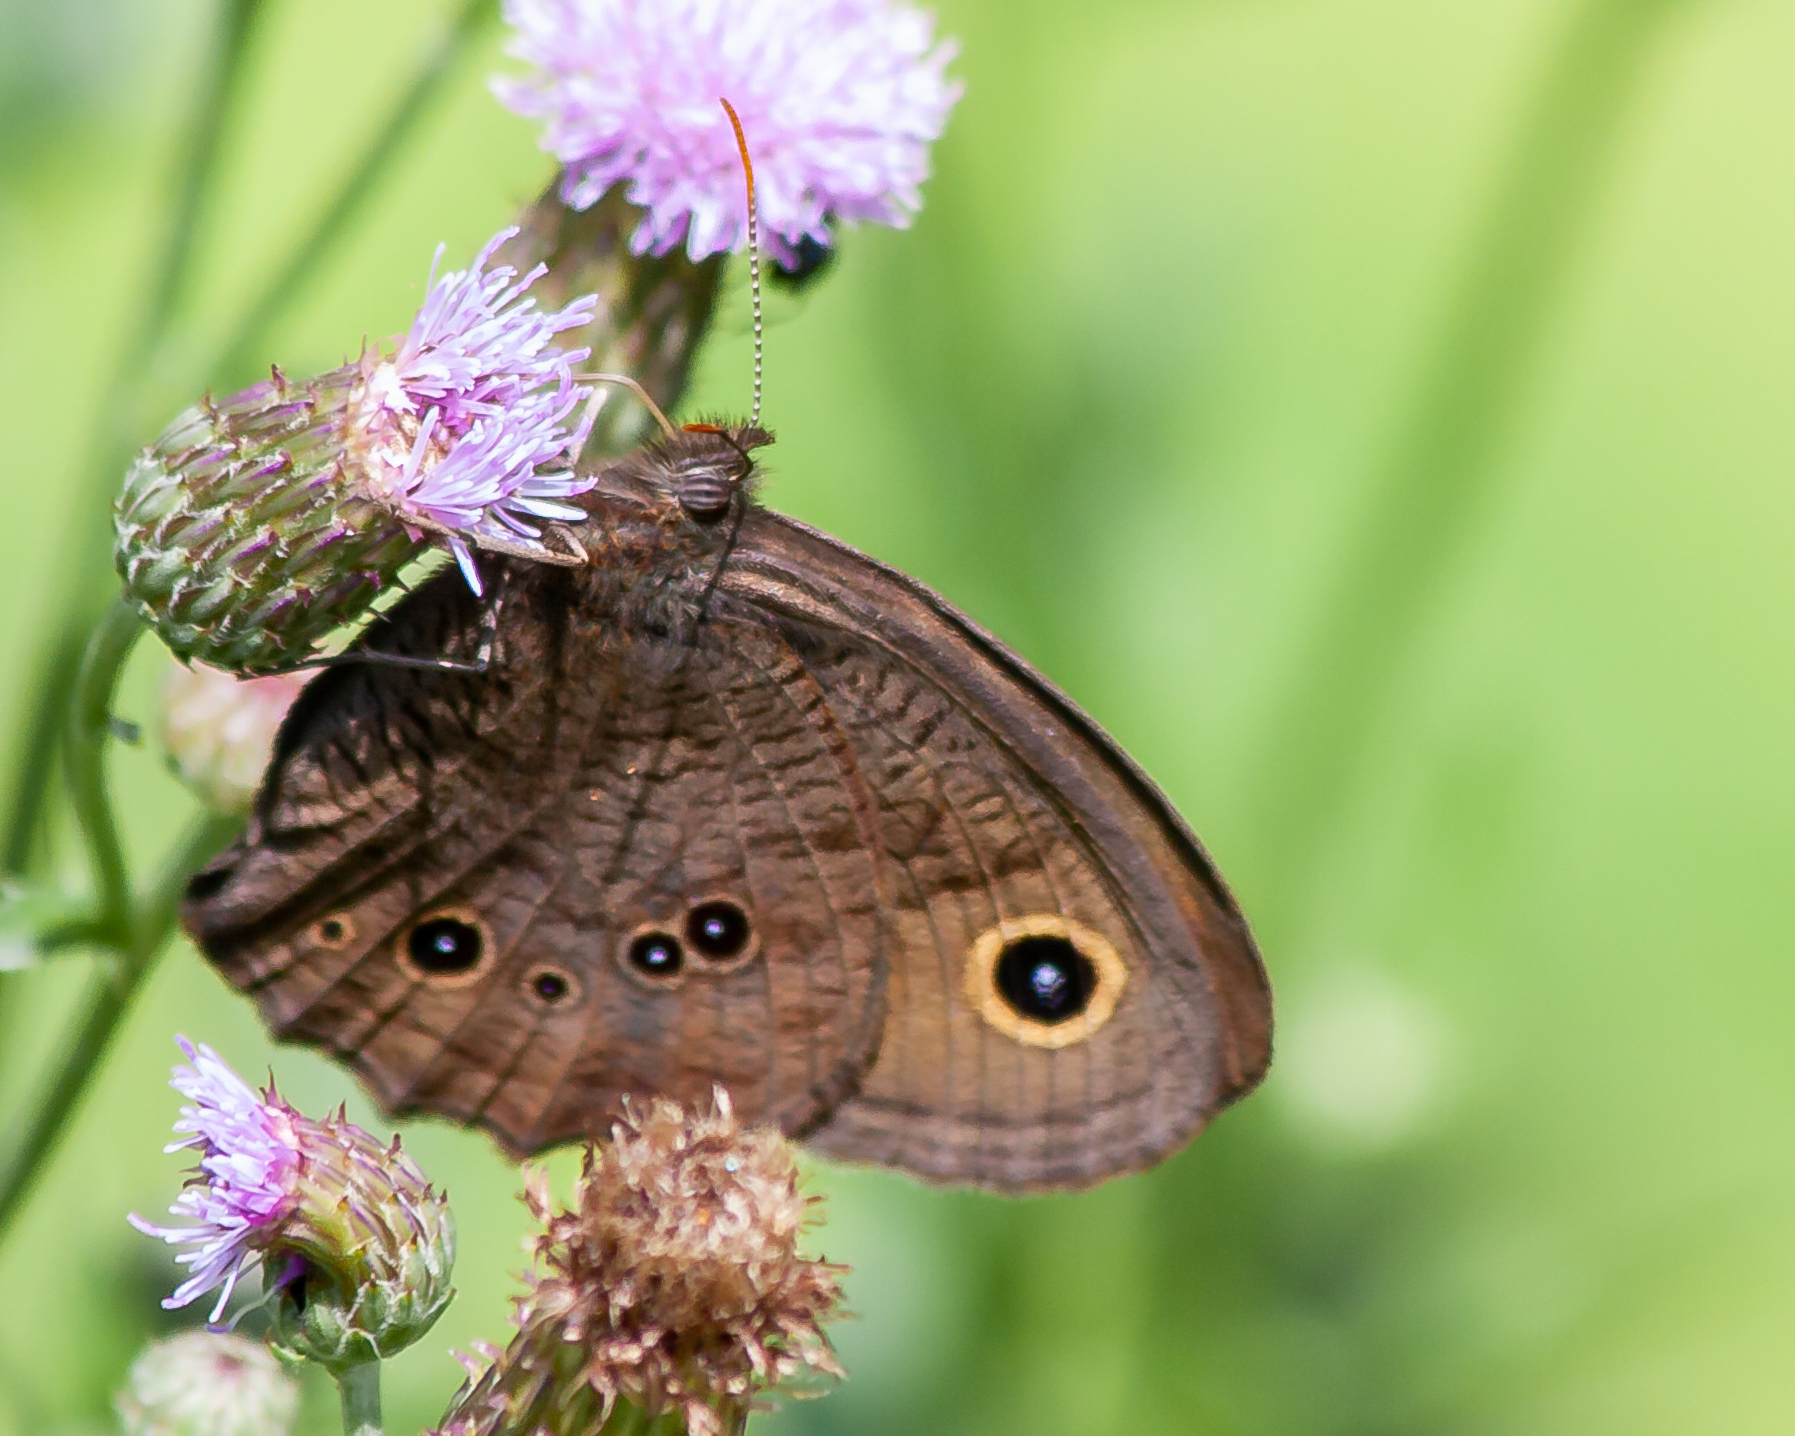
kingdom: Animalia
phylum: Arthropoda
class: Insecta
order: Lepidoptera
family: Nymphalidae
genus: Cercyonis
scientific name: Cercyonis pegala
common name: Common wood-nymph
